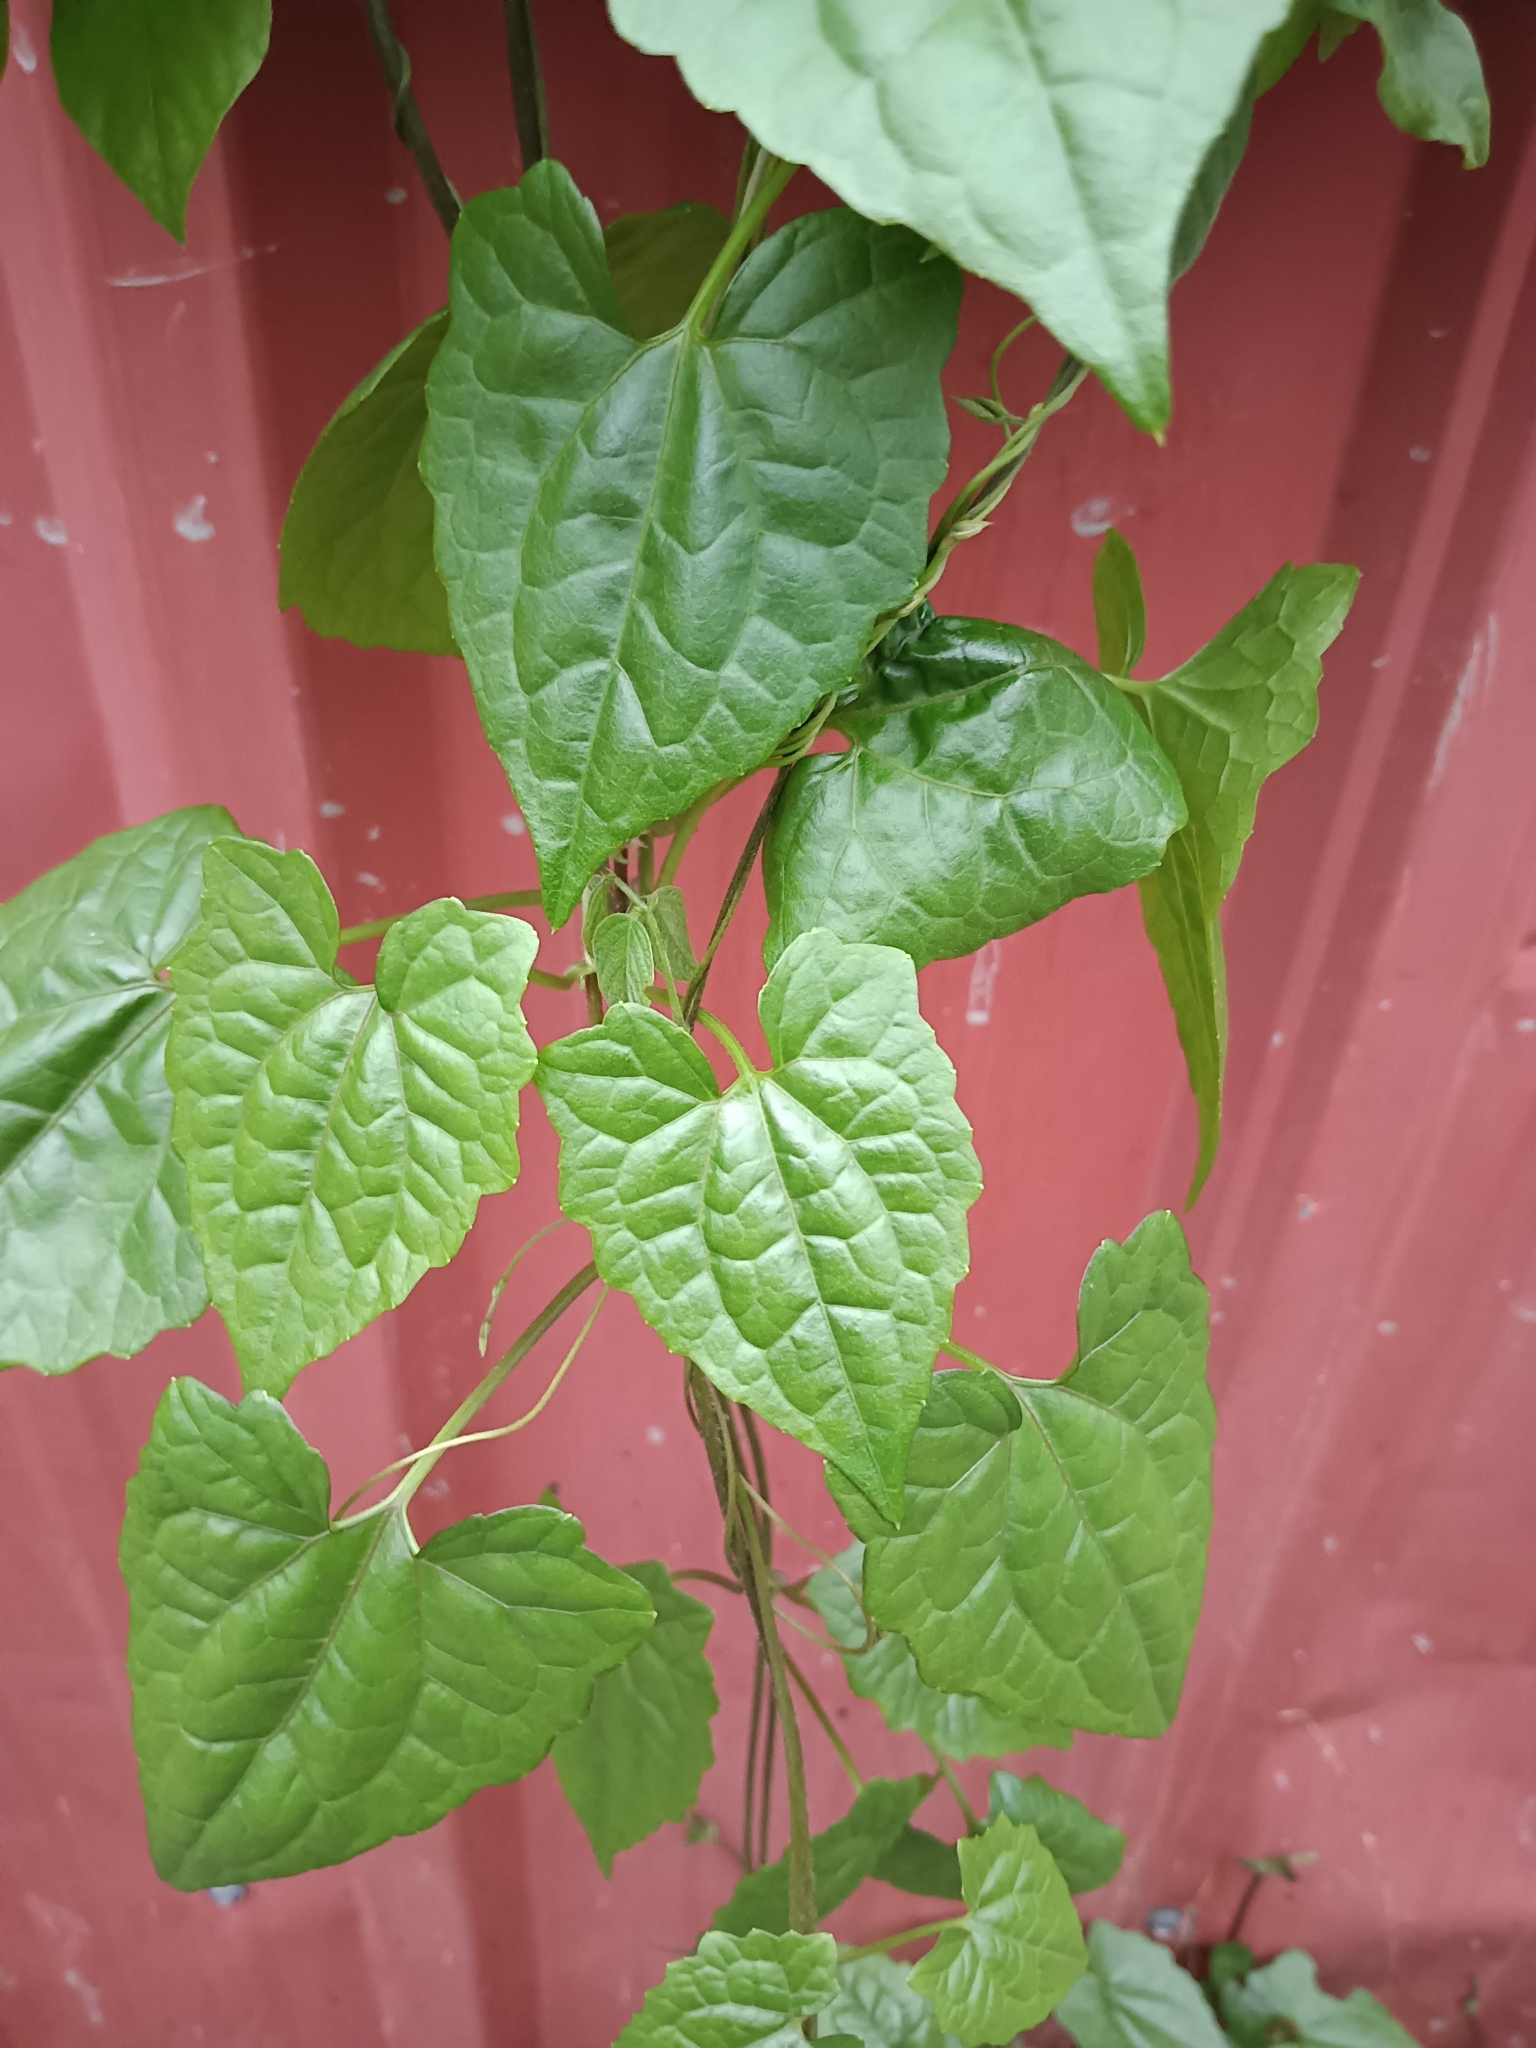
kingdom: Plantae
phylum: Tracheophyta
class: Magnoliopsida
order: Asterales
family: Asteraceae
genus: Mikania
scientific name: Mikania micrantha
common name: Mile-a-minute
